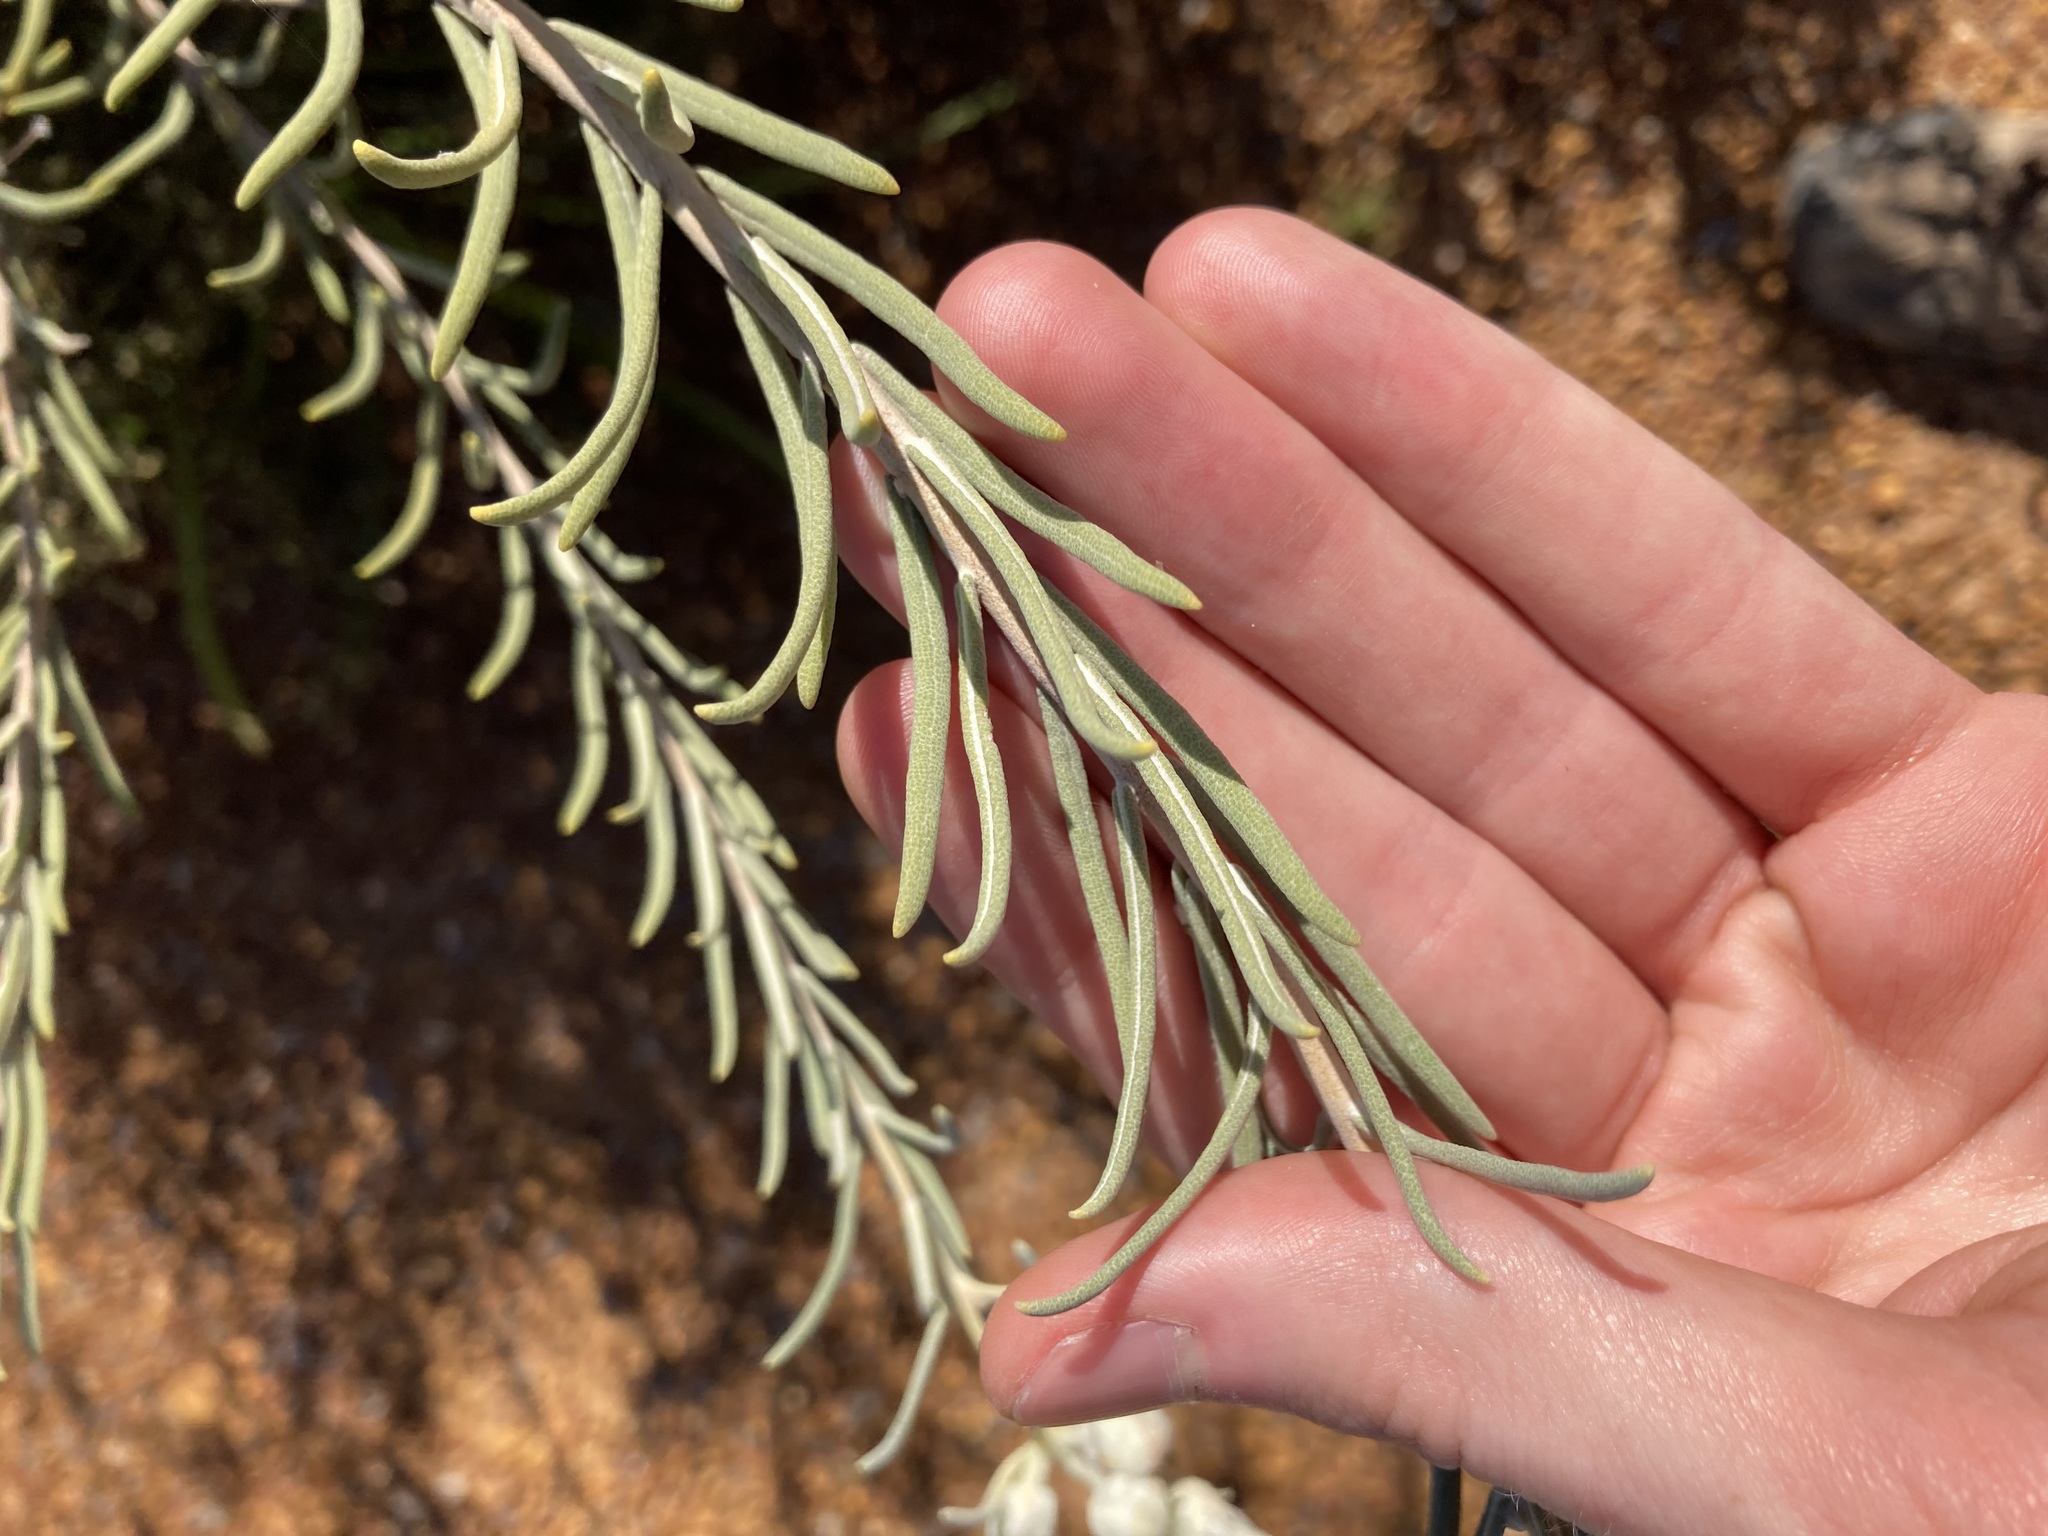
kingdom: Plantae
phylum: Tracheophyta
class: Magnoliopsida
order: Lamiales
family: Lamiaceae
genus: Lachnostachys
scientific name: Lachnostachys eriobotrya
